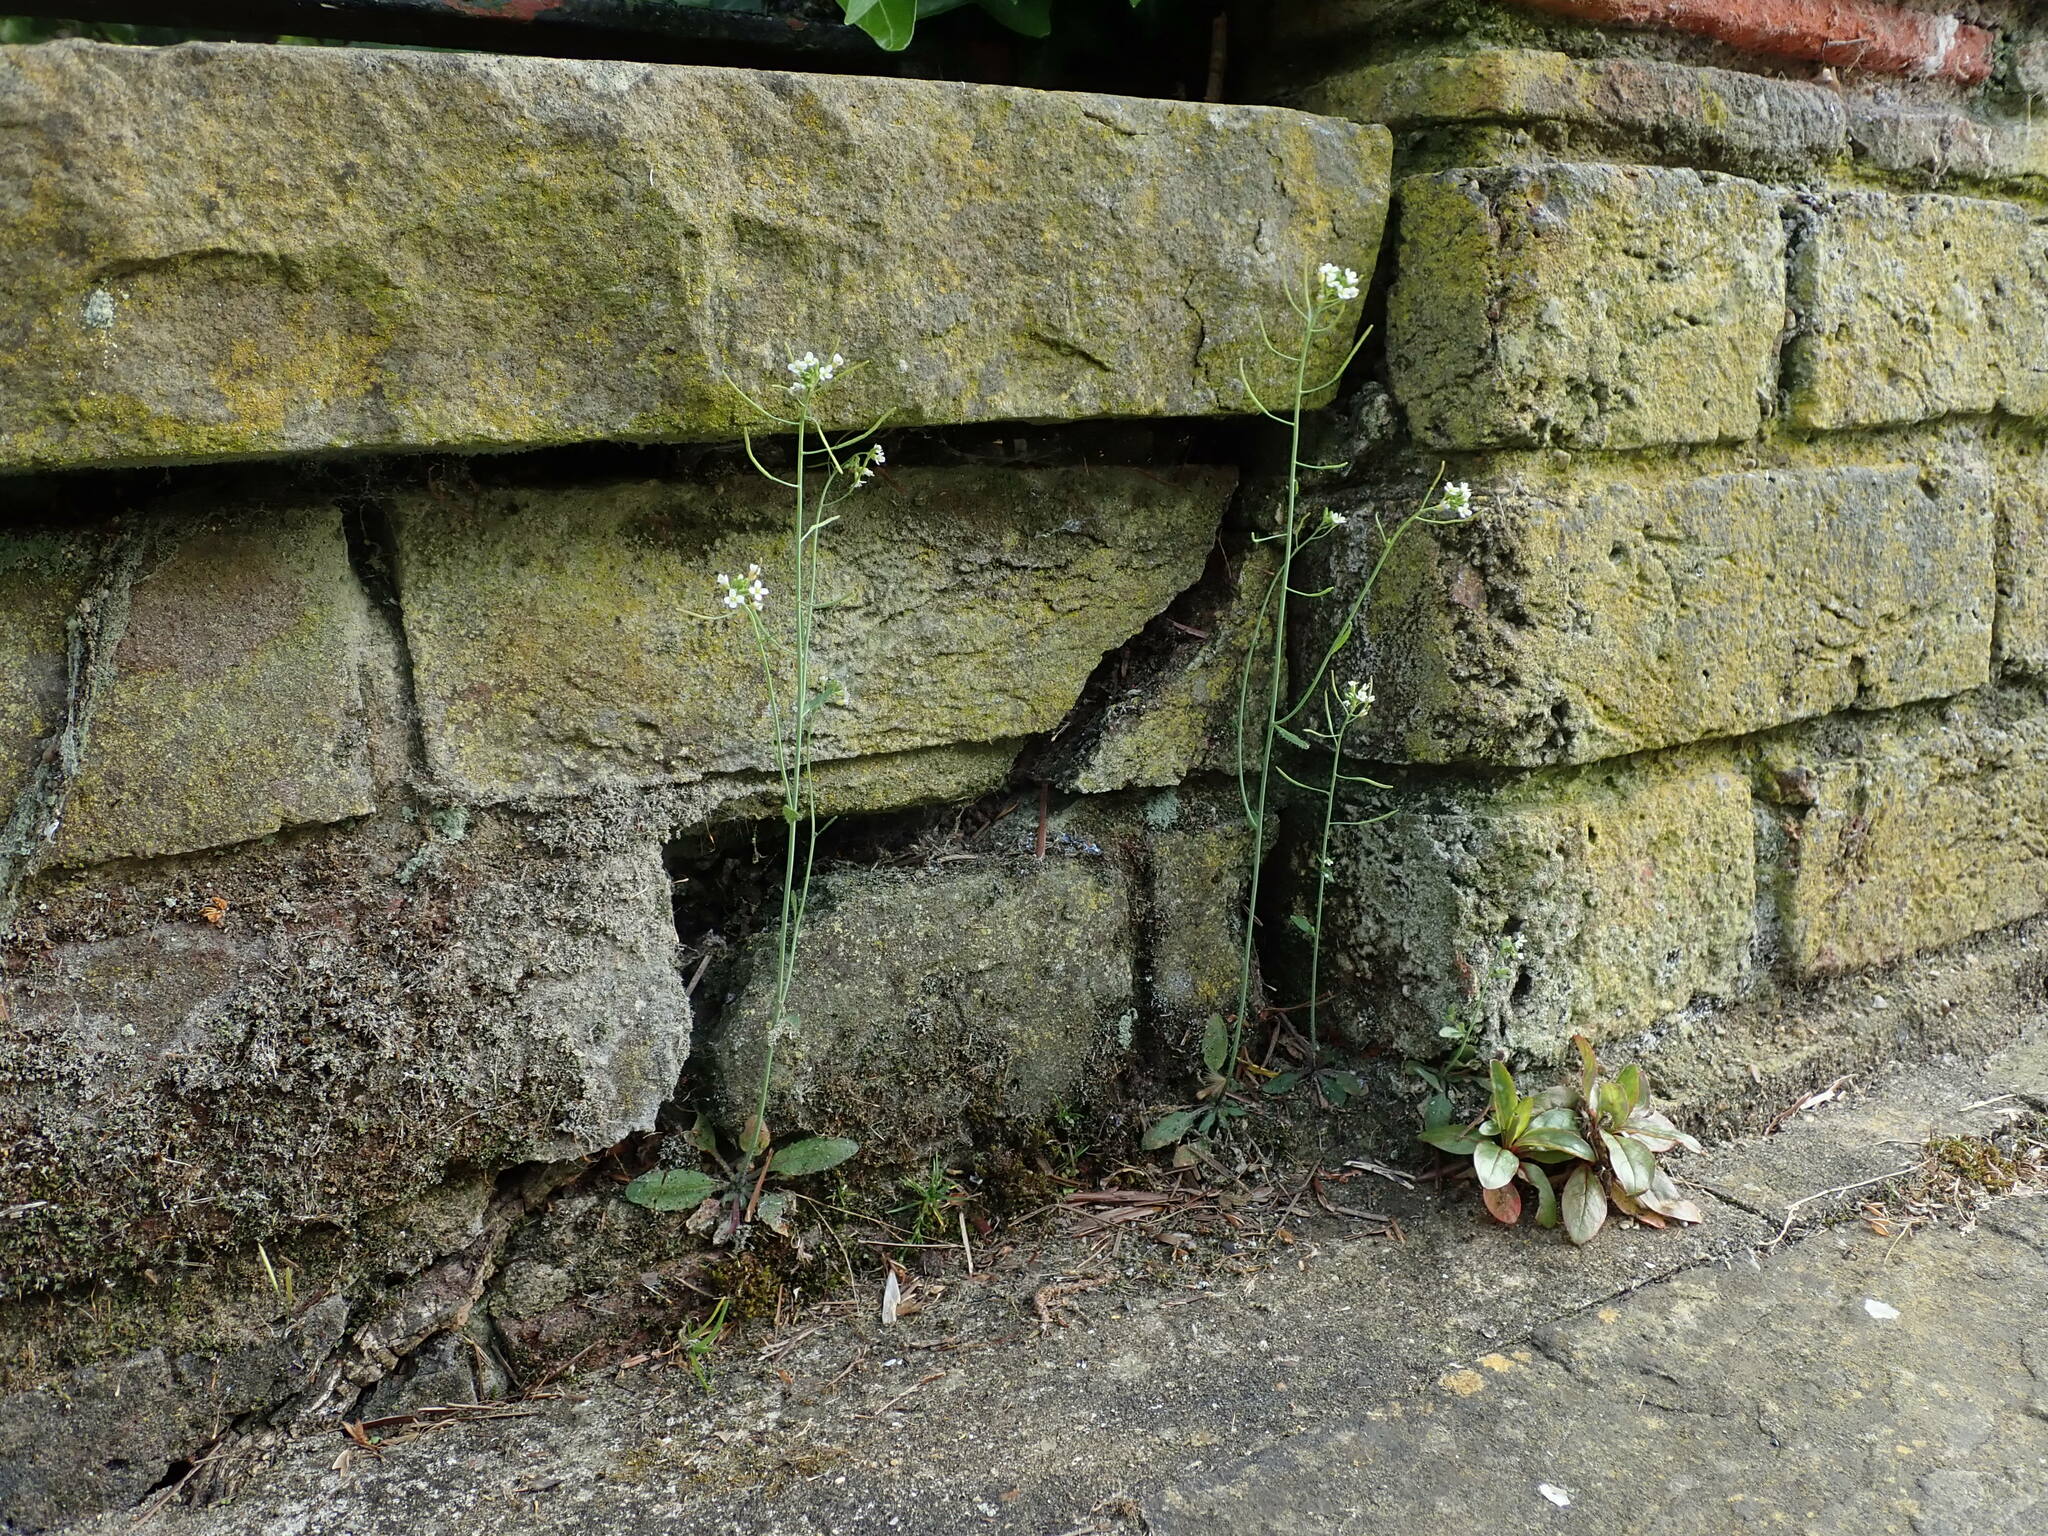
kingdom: Plantae
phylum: Tracheophyta
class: Magnoliopsida
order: Brassicales
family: Brassicaceae
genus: Arabidopsis
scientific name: Arabidopsis thaliana
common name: Thale cress
